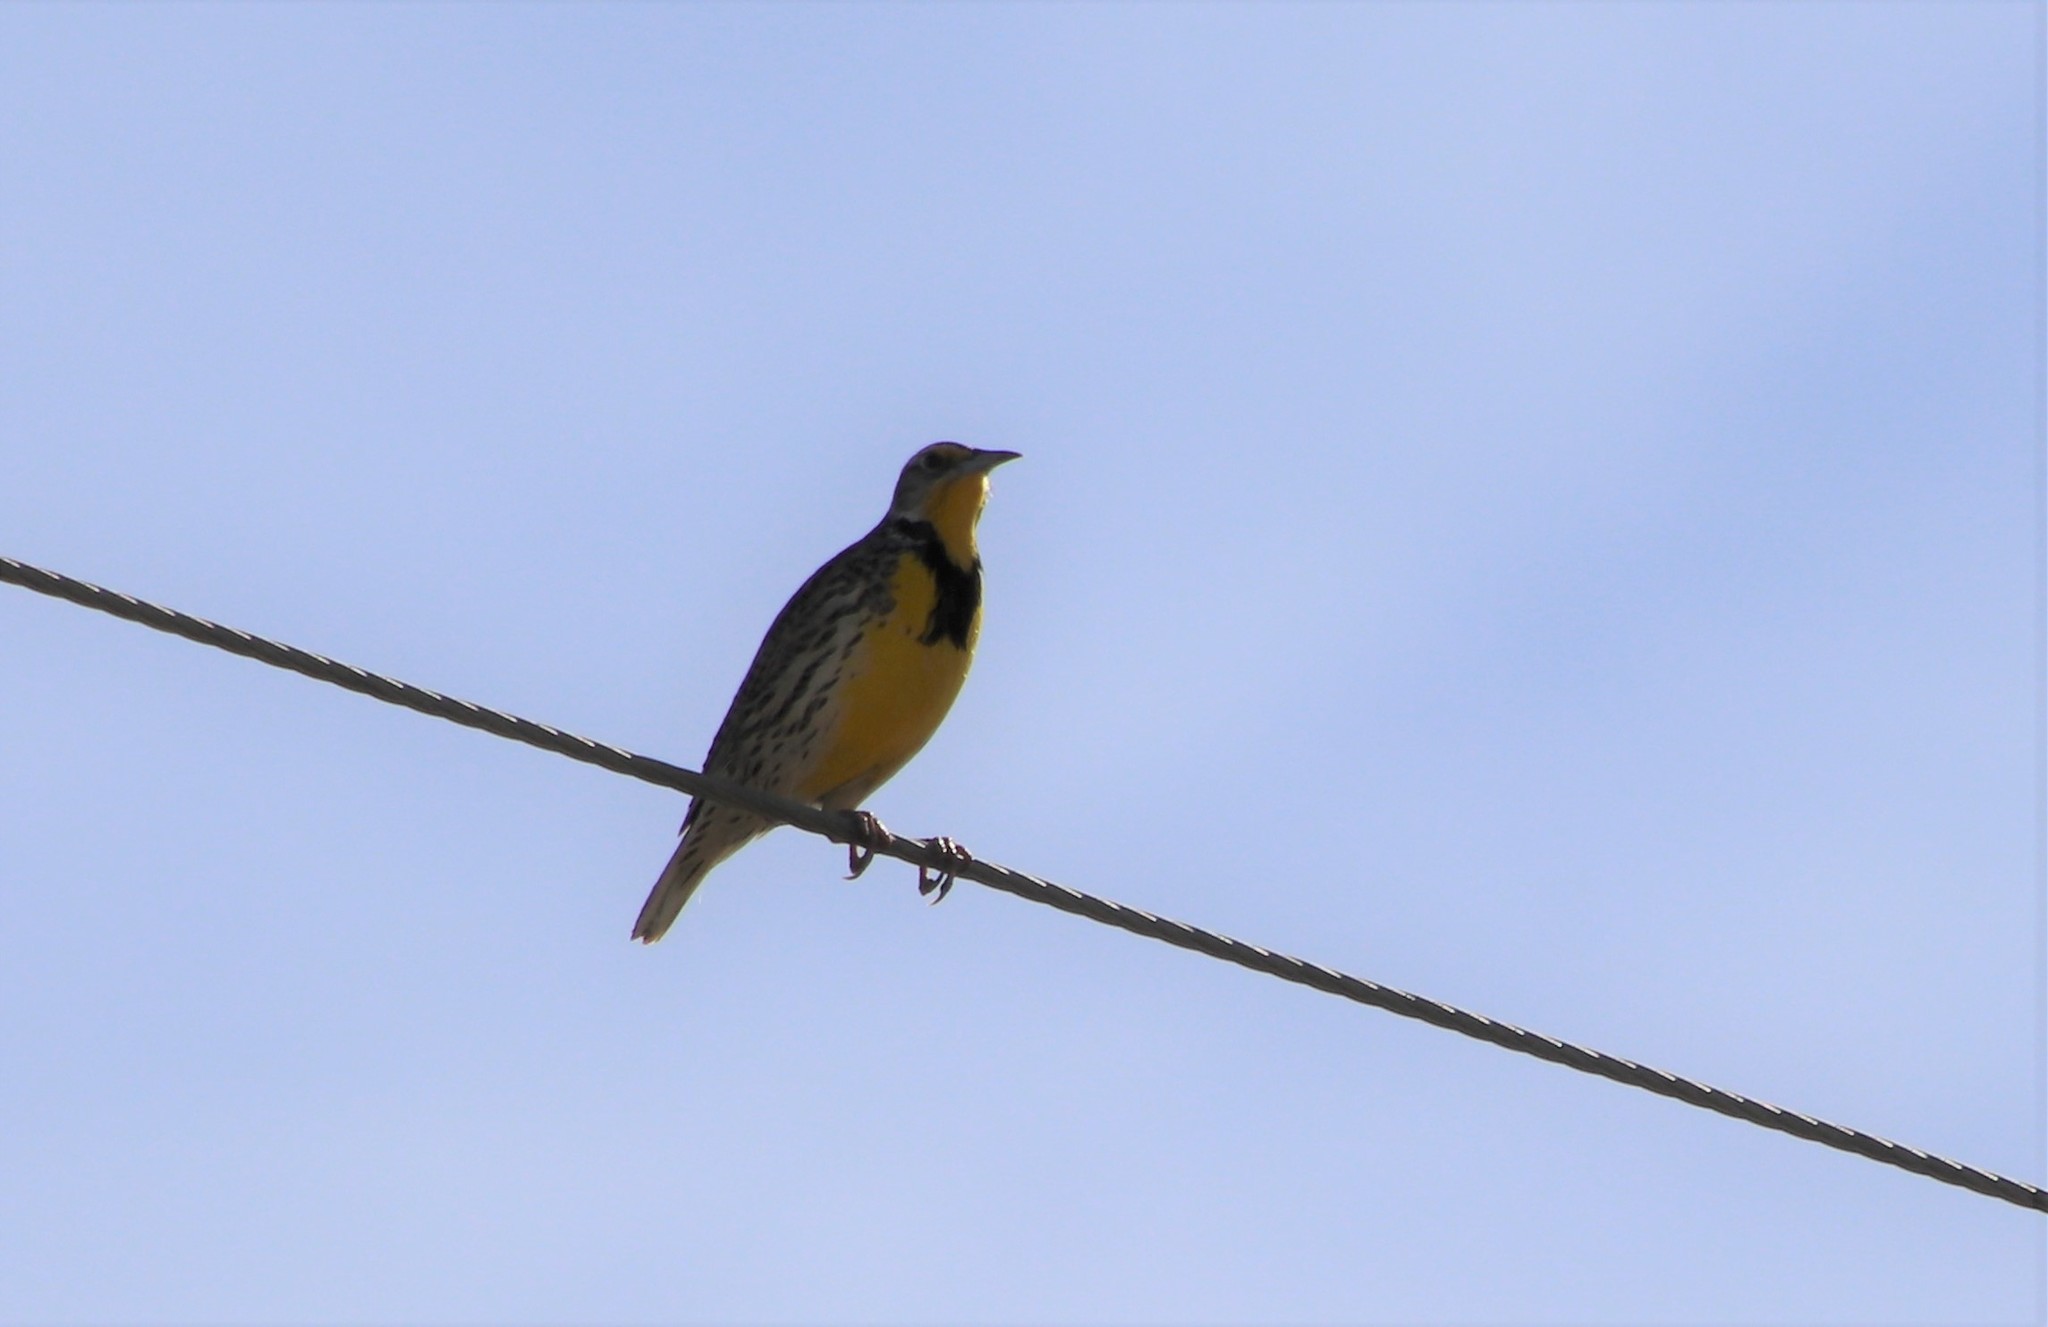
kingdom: Animalia
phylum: Chordata
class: Aves
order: Passeriformes
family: Icteridae
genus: Sturnella
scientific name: Sturnella neglecta
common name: Western meadowlark
